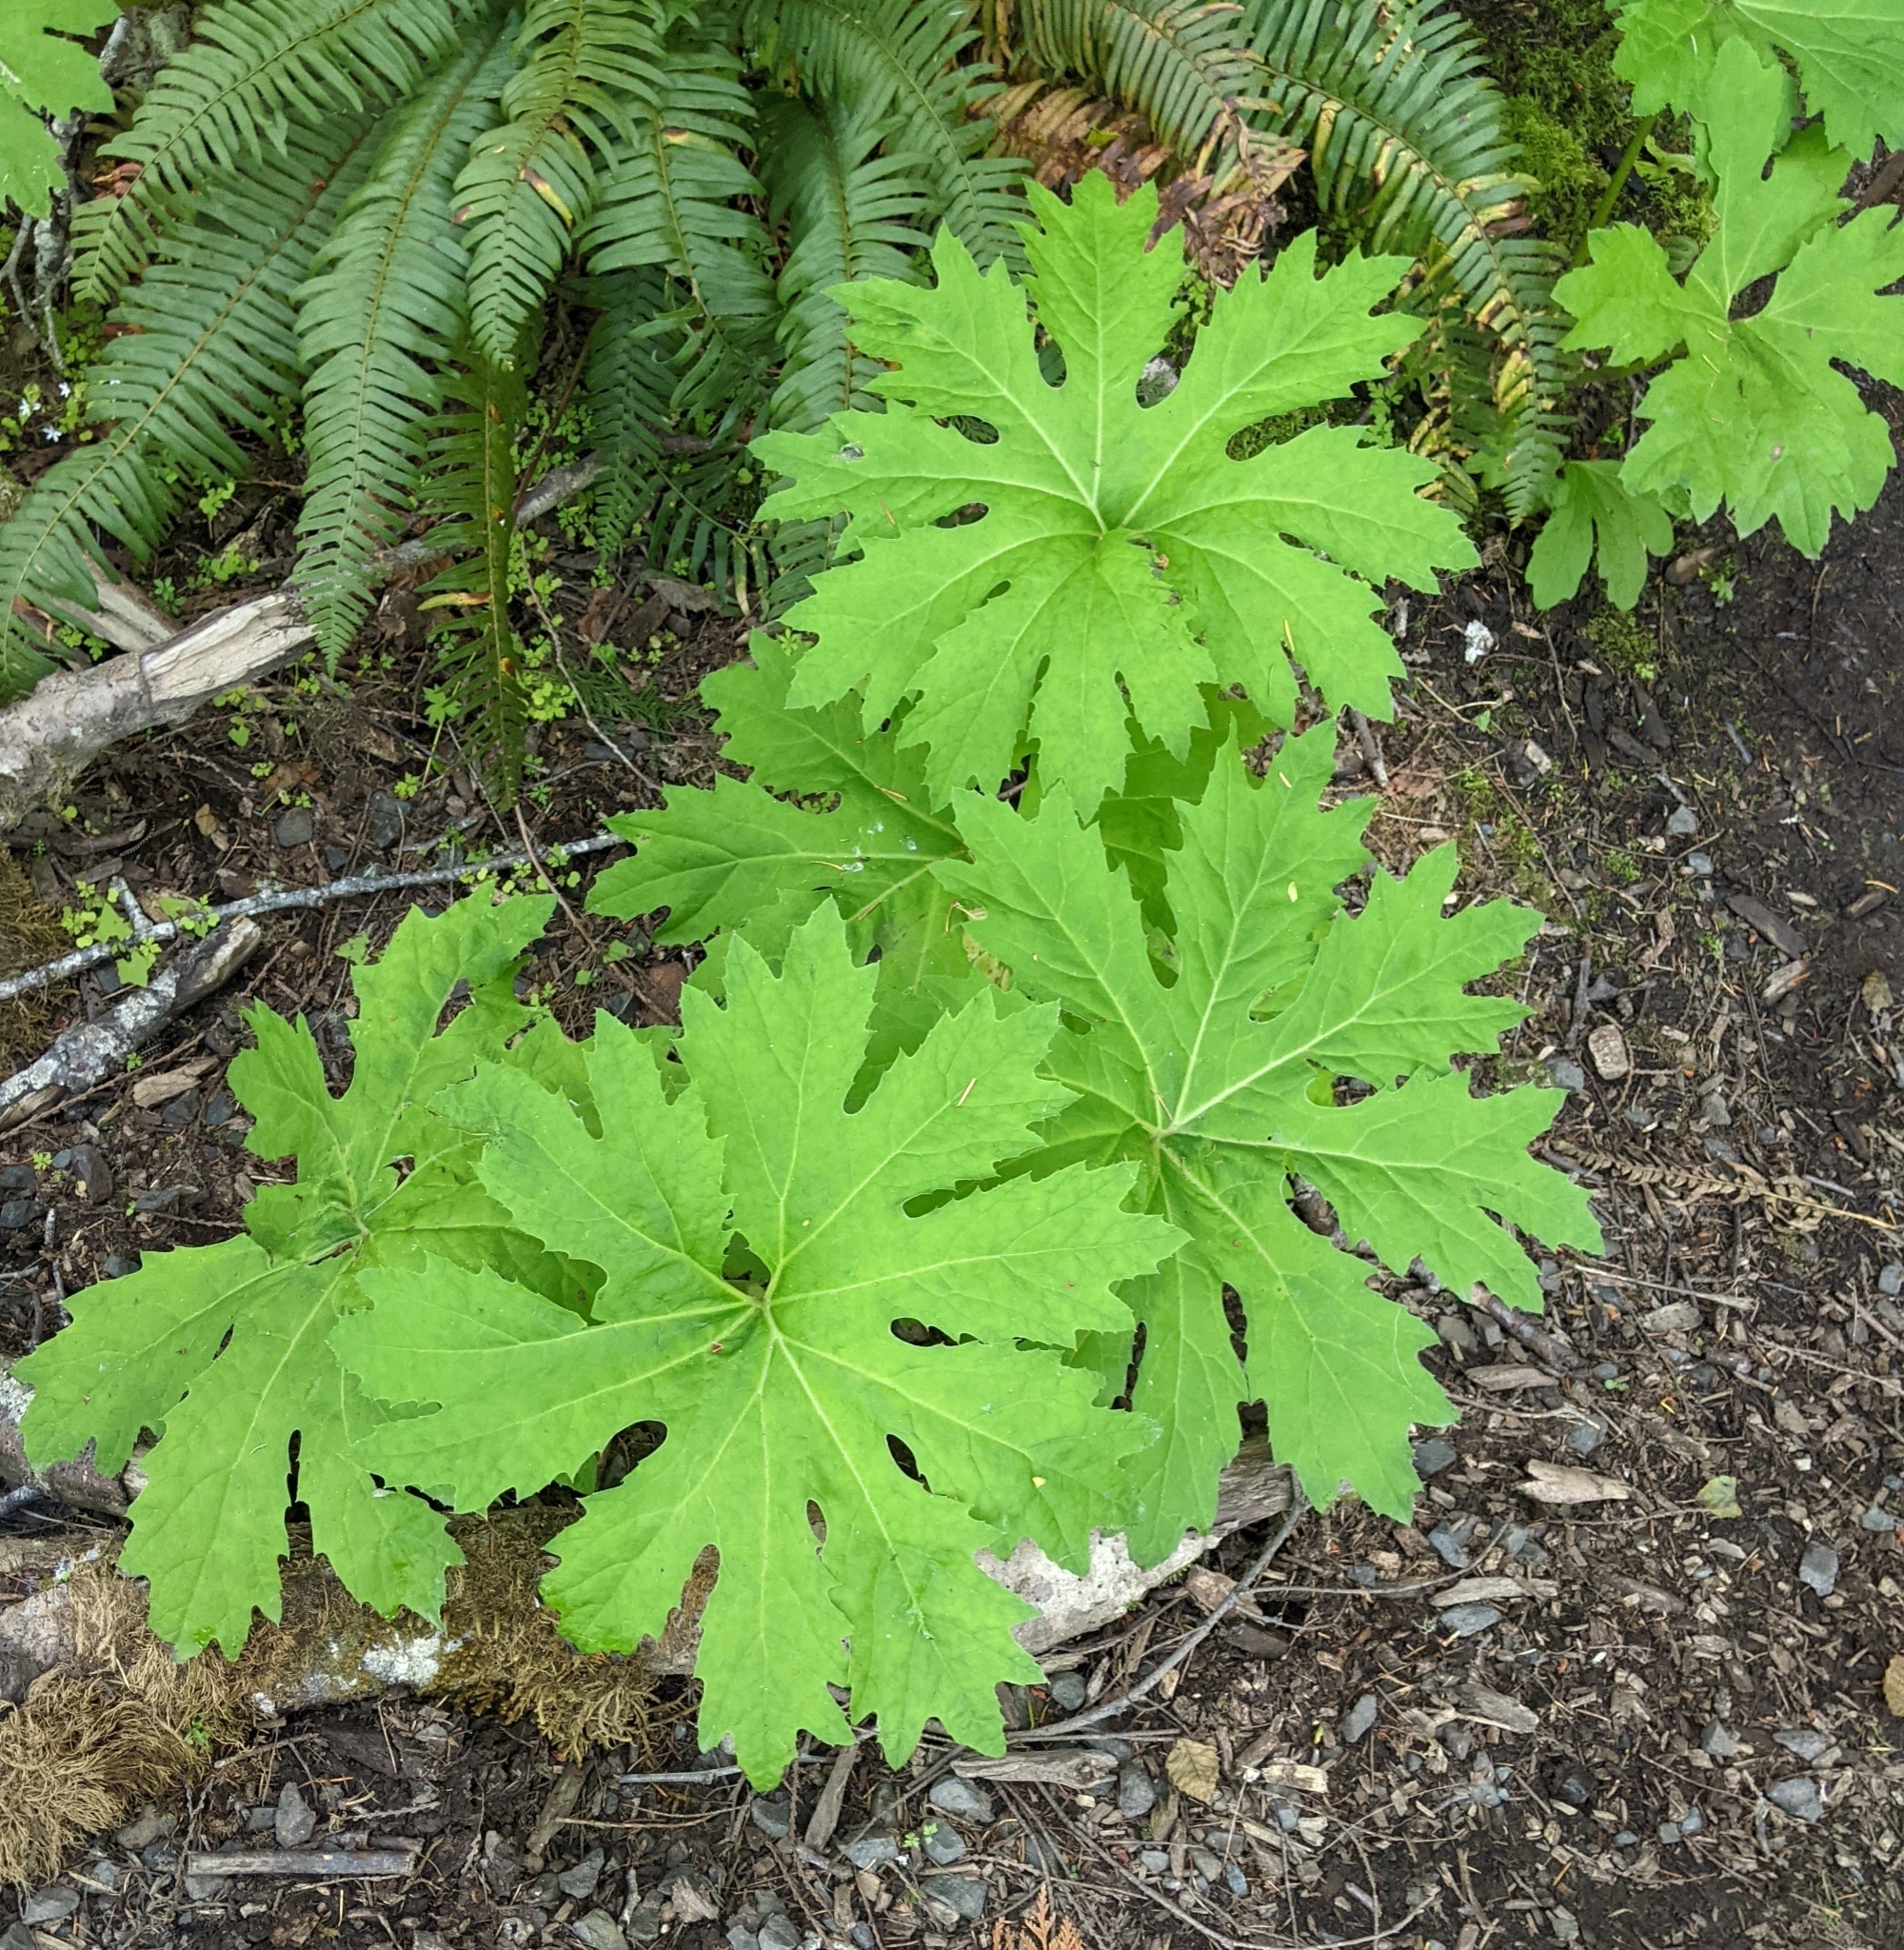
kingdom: Plantae
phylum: Tracheophyta
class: Magnoliopsida
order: Asterales
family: Asteraceae
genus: Petasites
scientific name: Petasites frigidus
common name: Arctic butterbur
